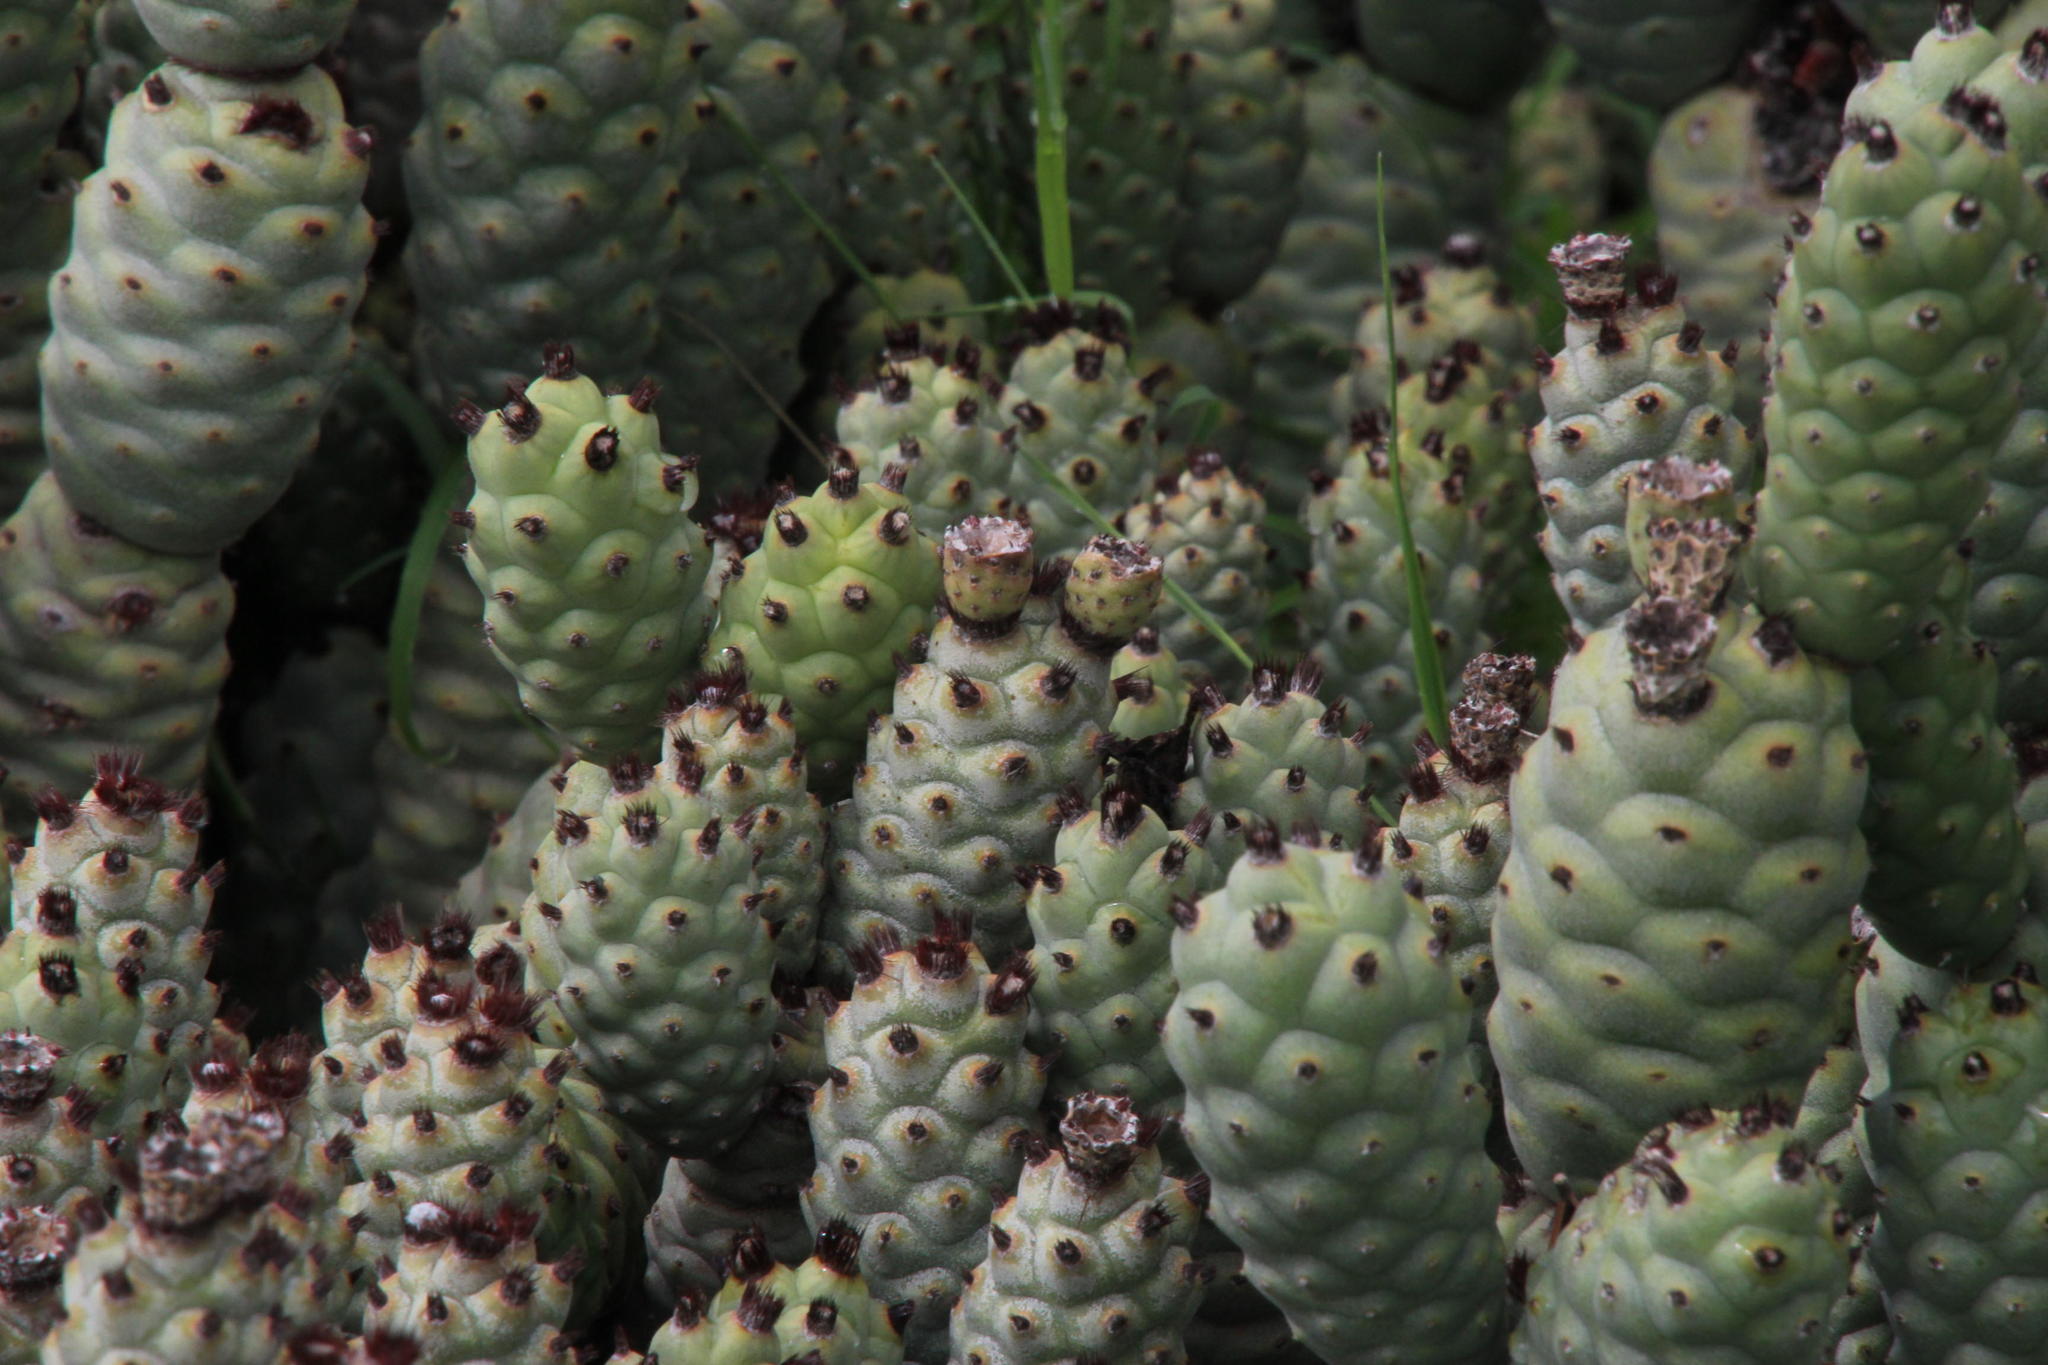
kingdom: Plantae
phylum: Tracheophyta
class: Magnoliopsida
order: Caryophyllales
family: Cactaceae
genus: Tephrocactus
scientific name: Tephrocactus articulatus
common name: Paper cactus
